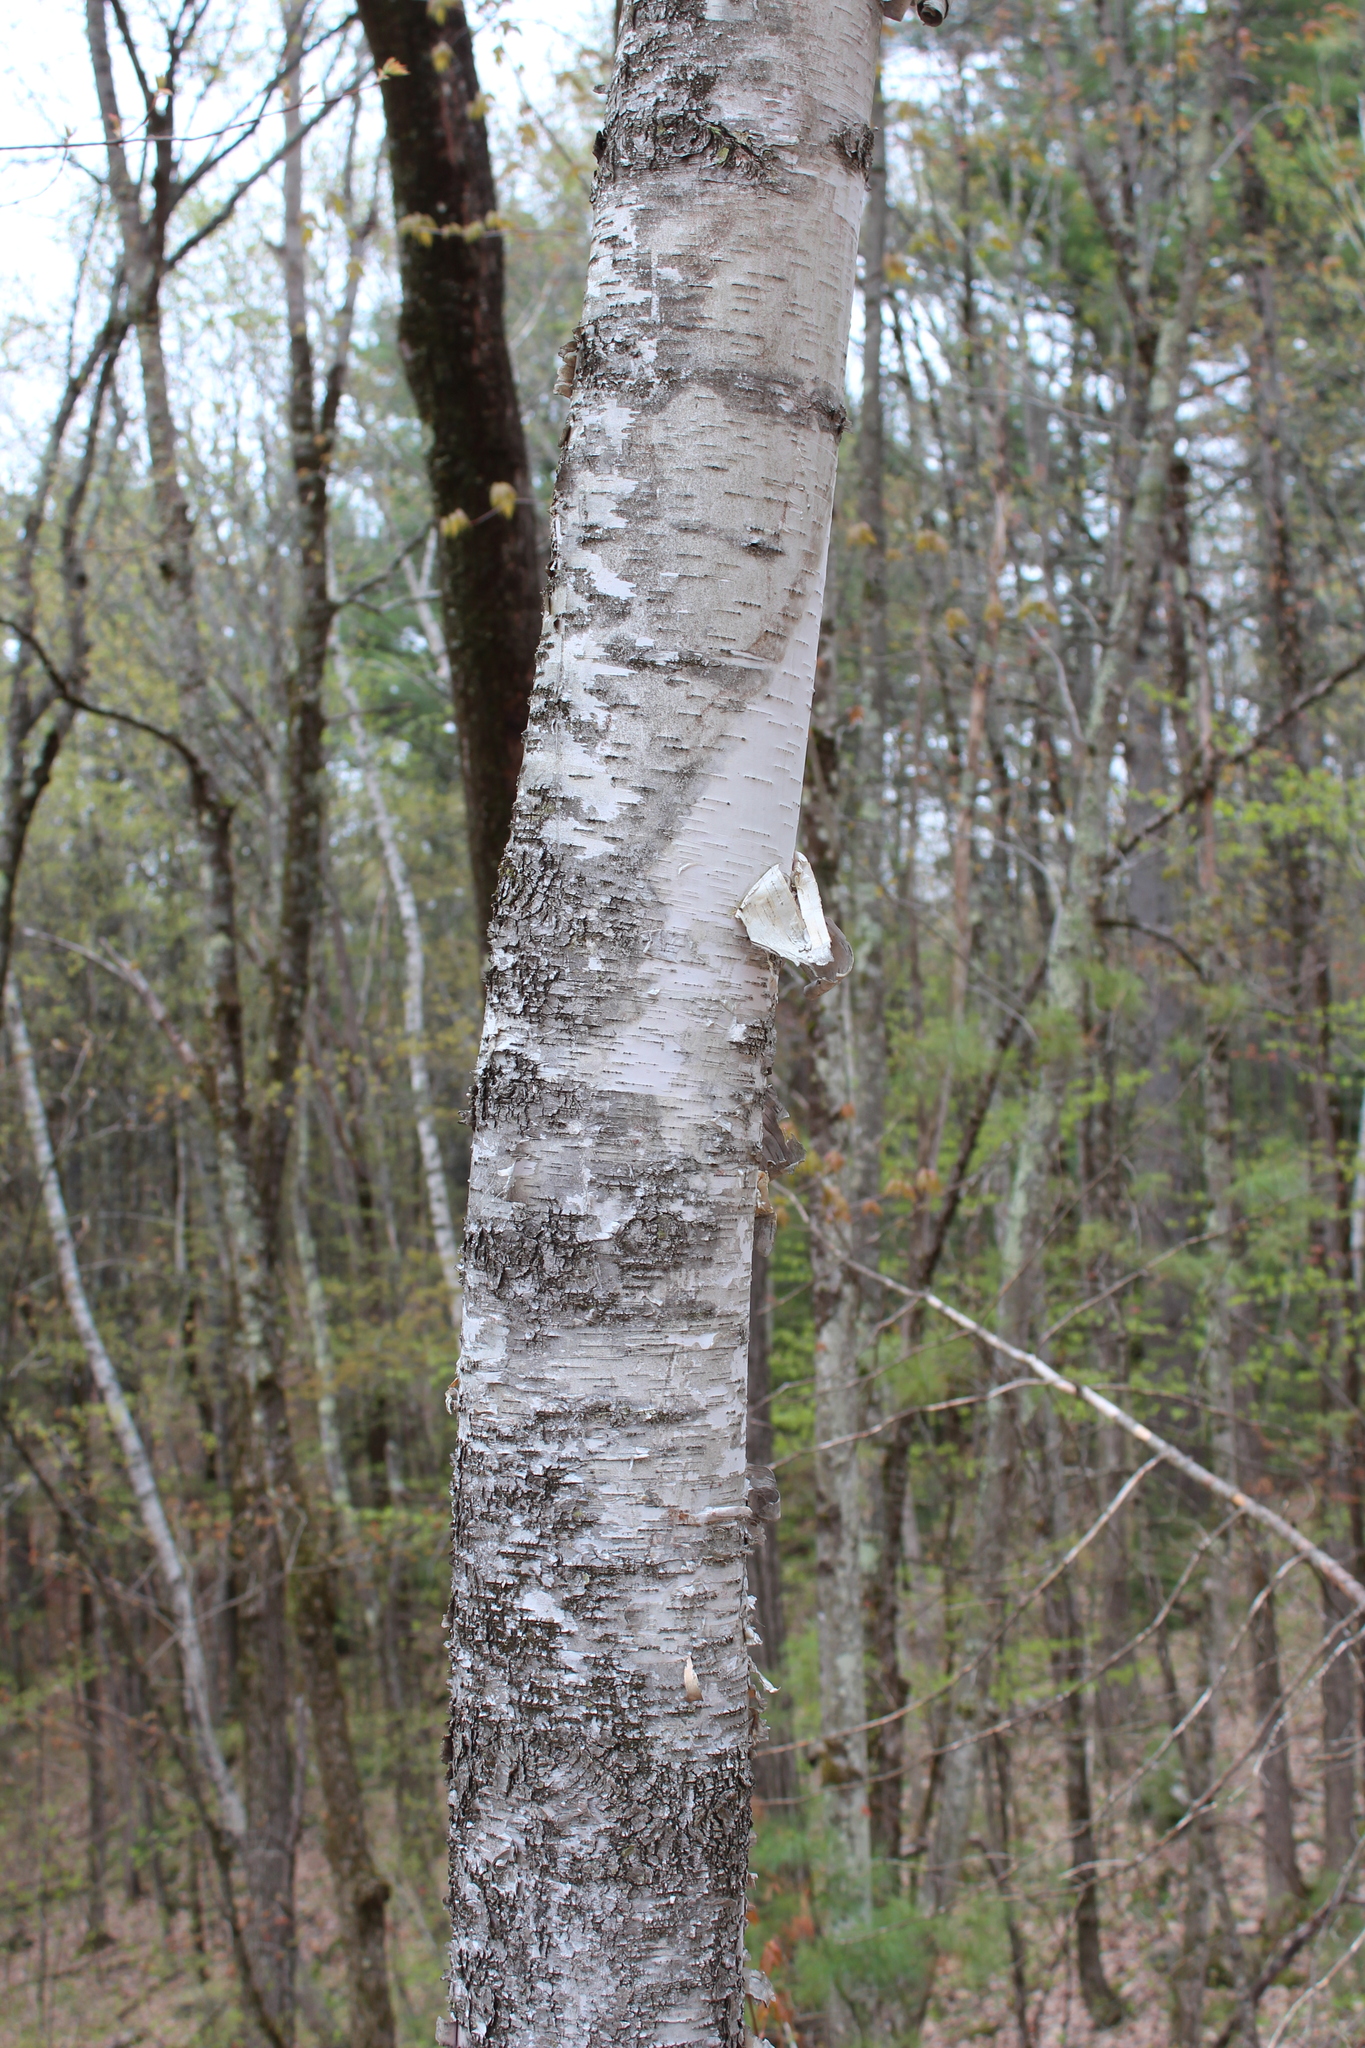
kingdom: Plantae
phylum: Tracheophyta
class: Magnoliopsida
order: Fagales
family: Betulaceae
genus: Betula
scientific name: Betula papyrifera
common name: Paper birch
